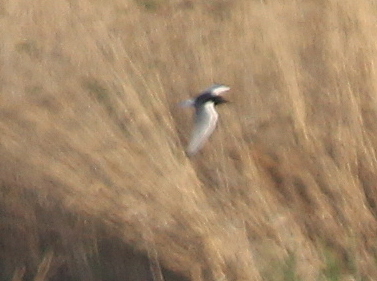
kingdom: Animalia
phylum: Chordata
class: Aves
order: Charadriiformes
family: Laridae
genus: Chlidonias
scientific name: Chlidonias leucopterus
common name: White-winged tern
